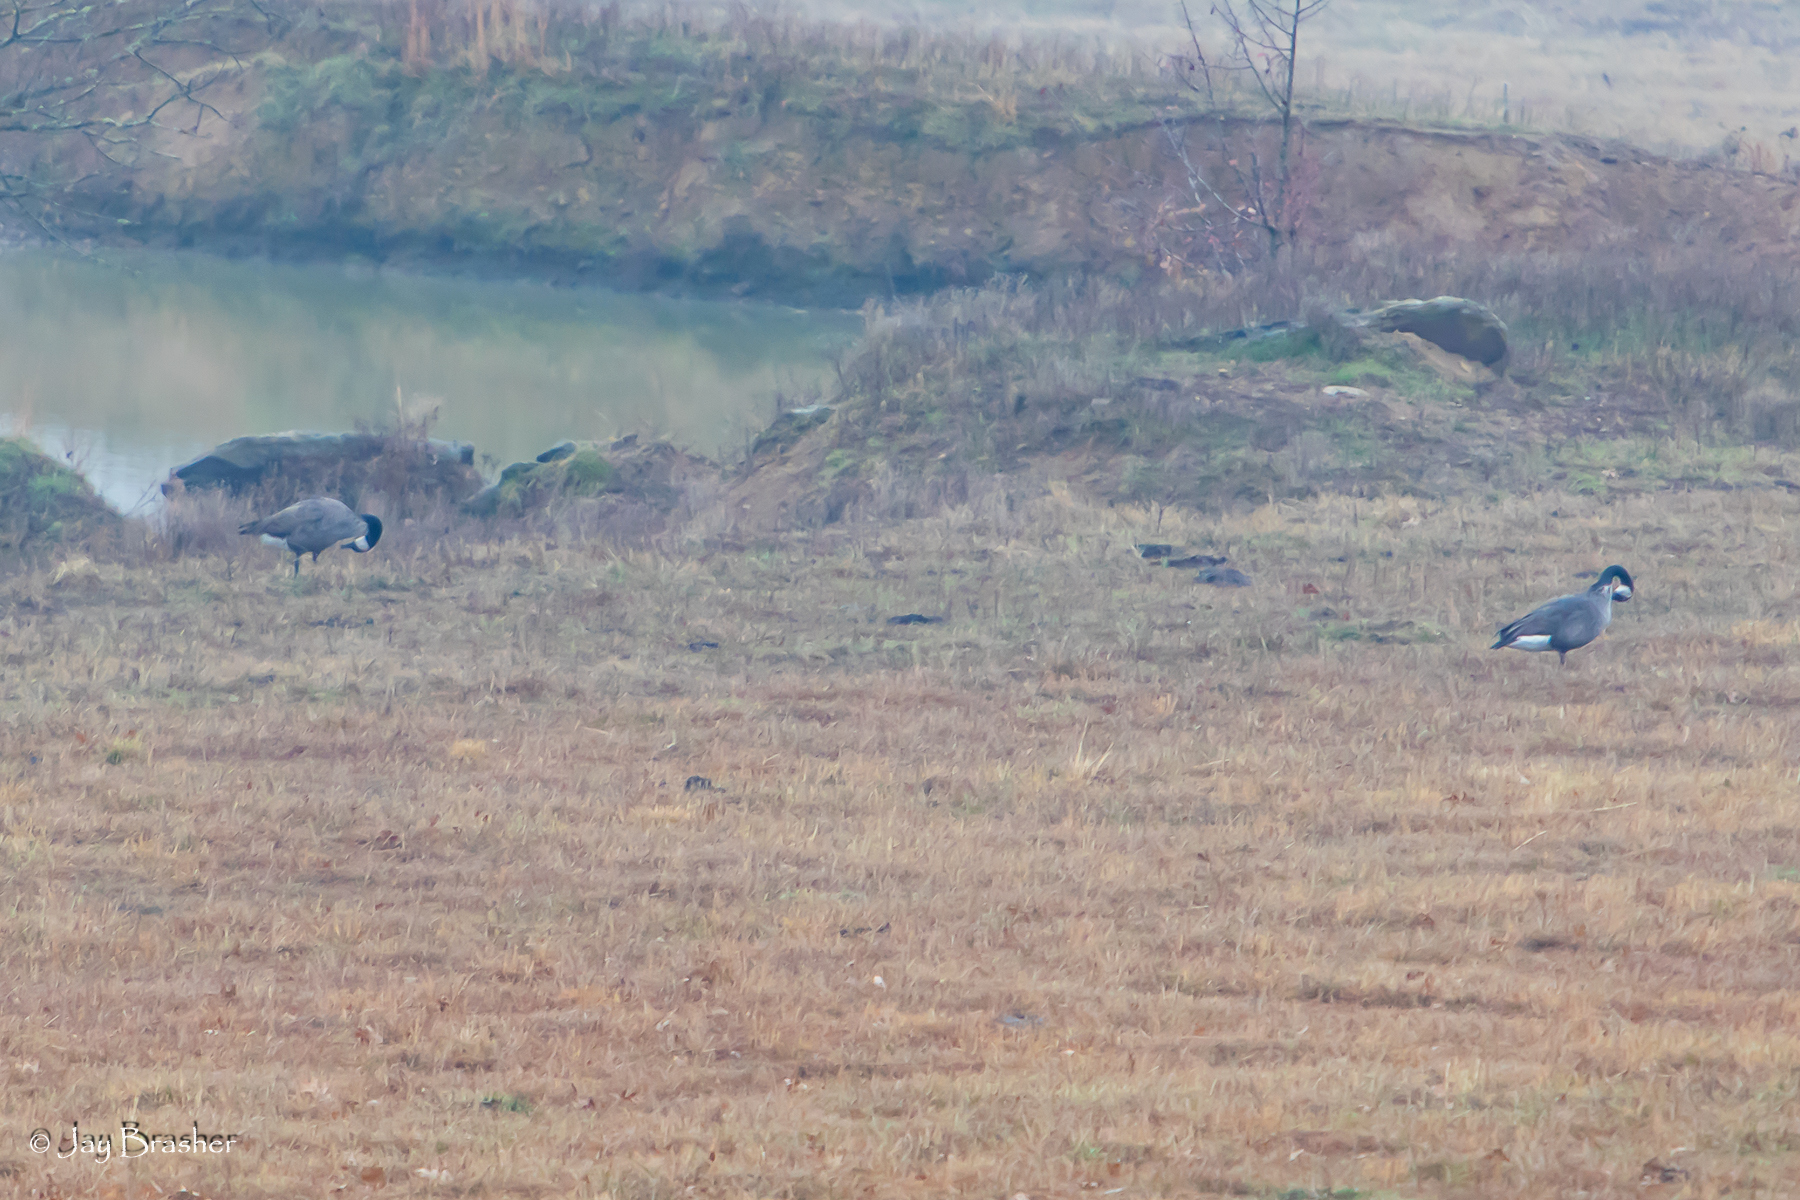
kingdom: Animalia
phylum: Chordata
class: Aves
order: Anseriformes
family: Anatidae
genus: Branta
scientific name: Branta canadensis
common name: Canada goose
